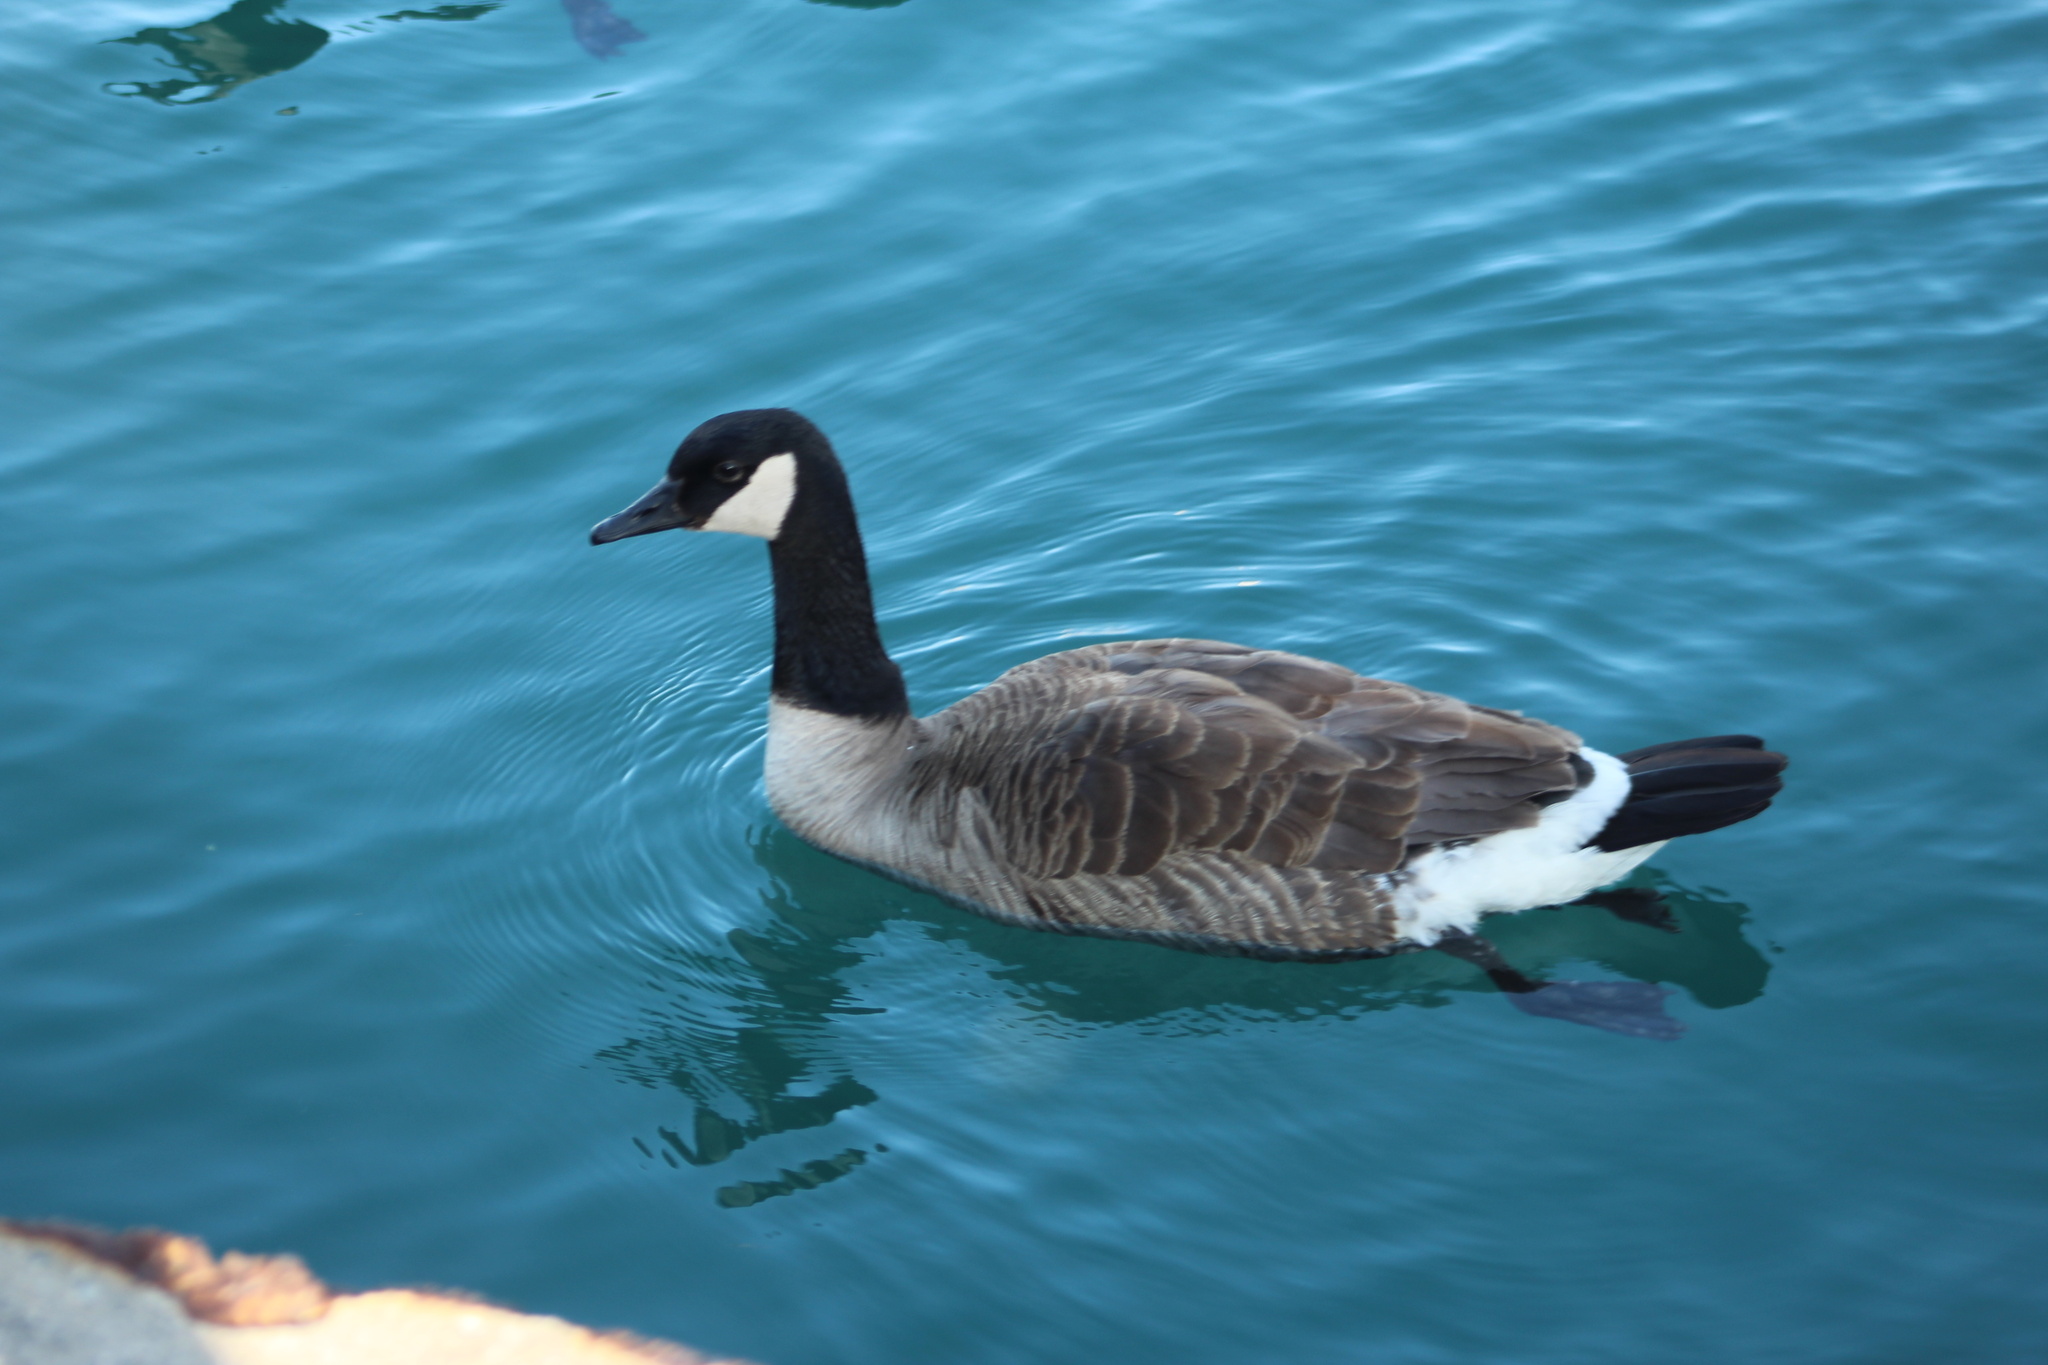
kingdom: Animalia
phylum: Chordata
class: Aves
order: Anseriformes
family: Anatidae
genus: Branta
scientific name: Branta canadensis
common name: Canada goose
